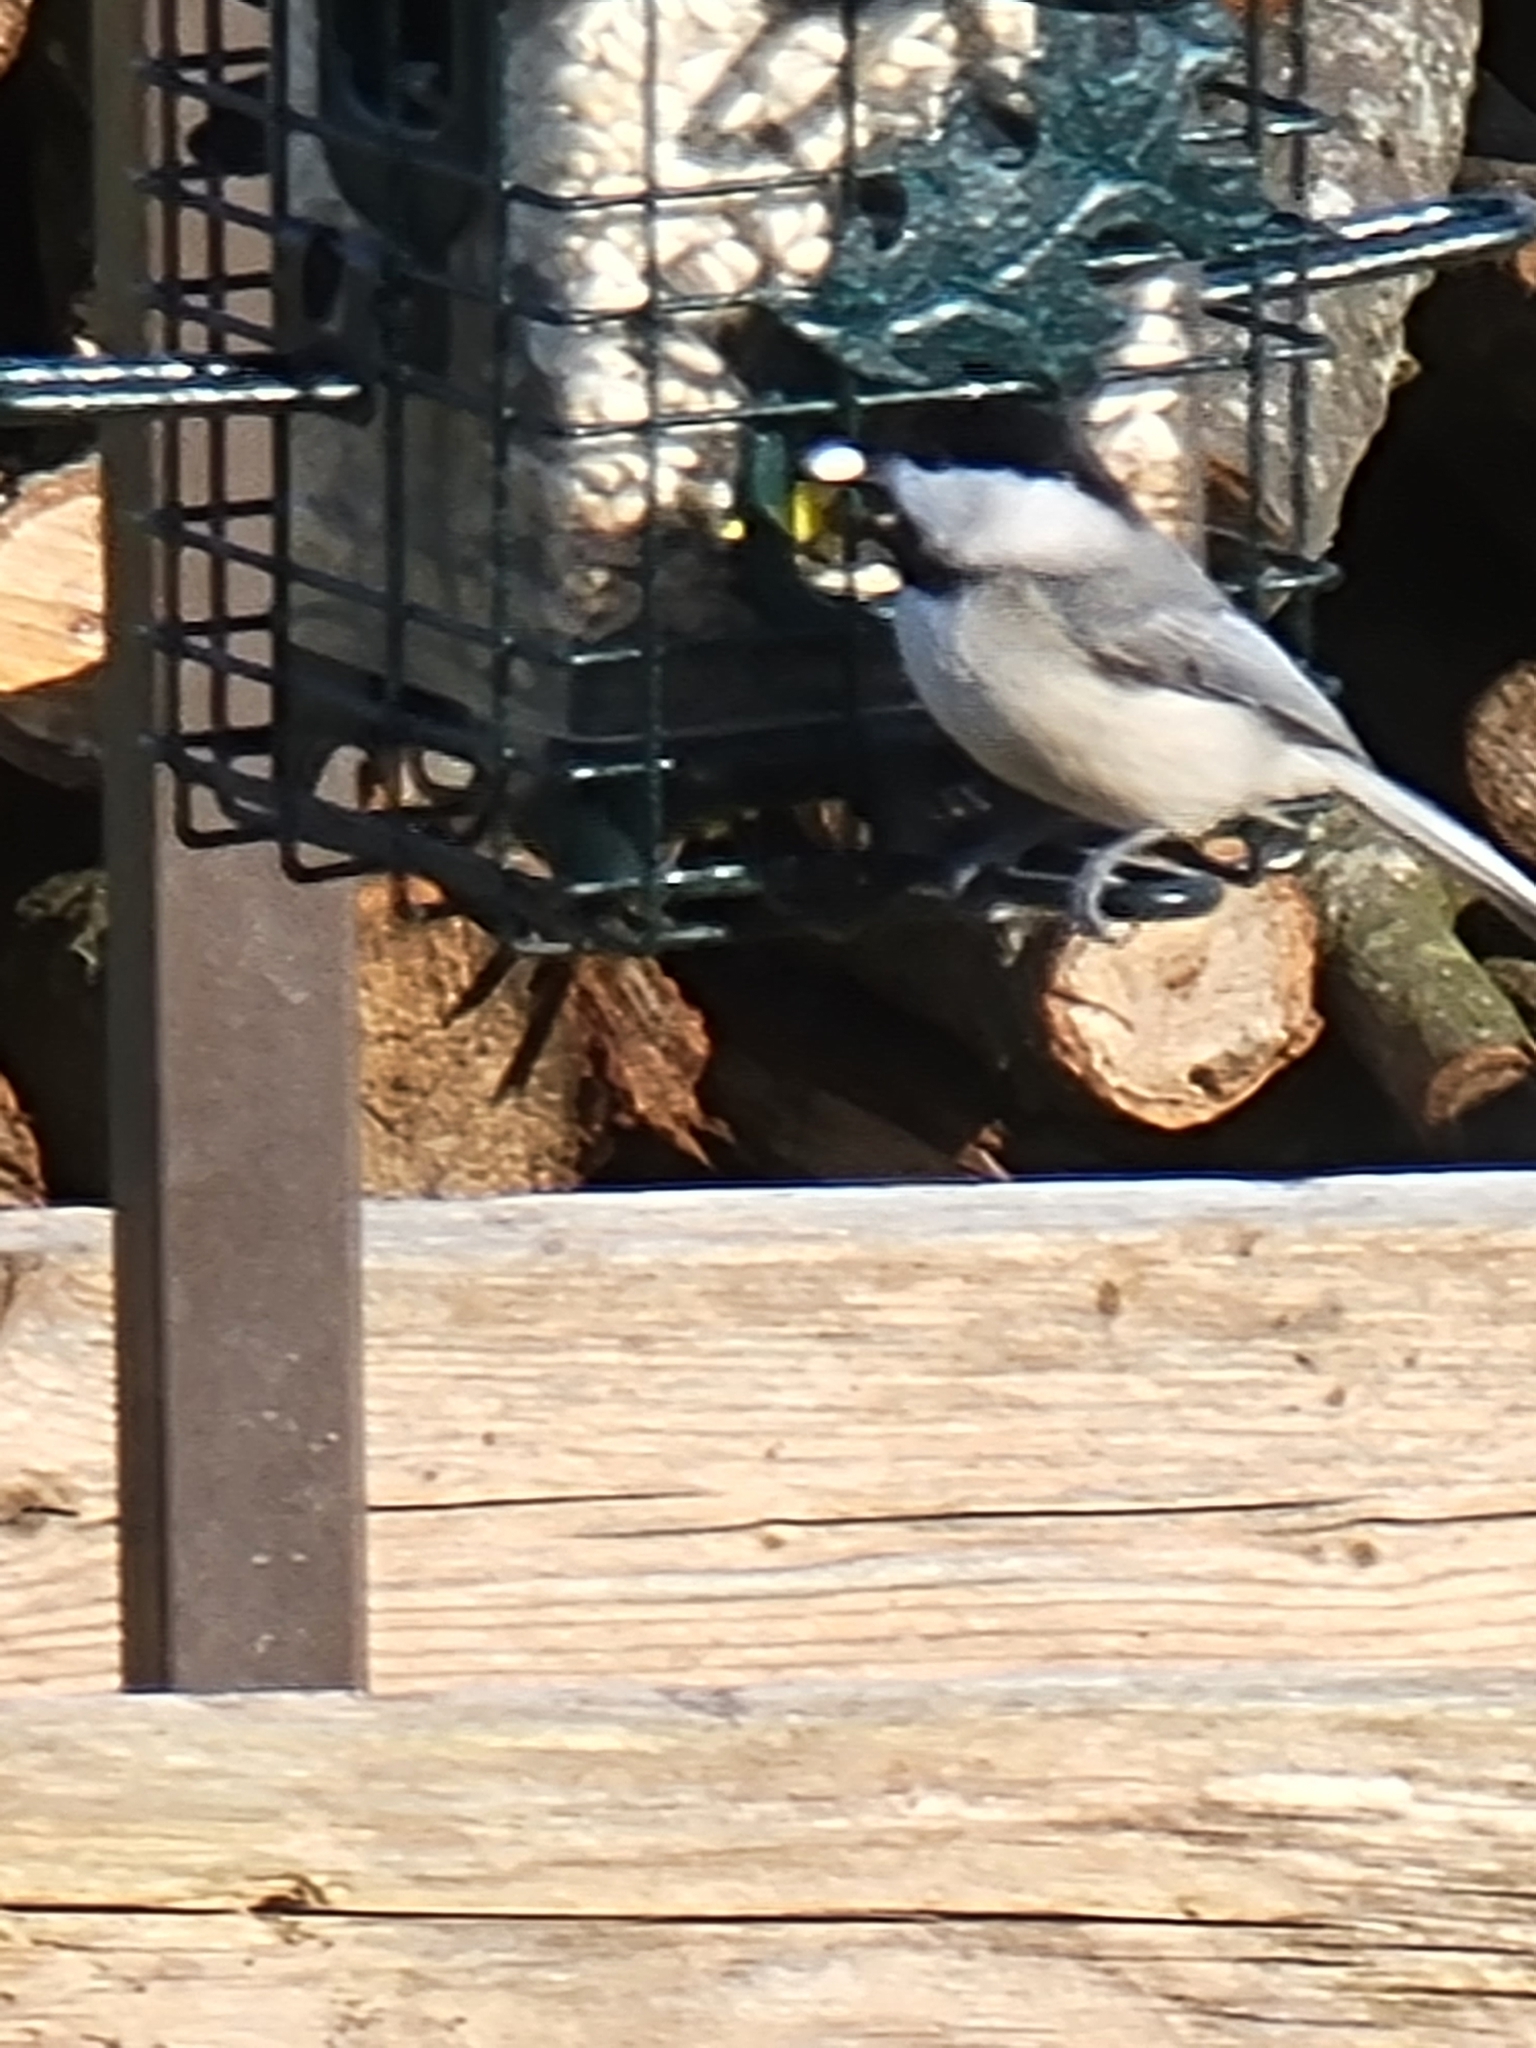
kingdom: Animalia
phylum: Chordata
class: Aves
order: Passeriformes
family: Paridae
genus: Poecile
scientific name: Poecile carolinensis
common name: Carolina chickadee
